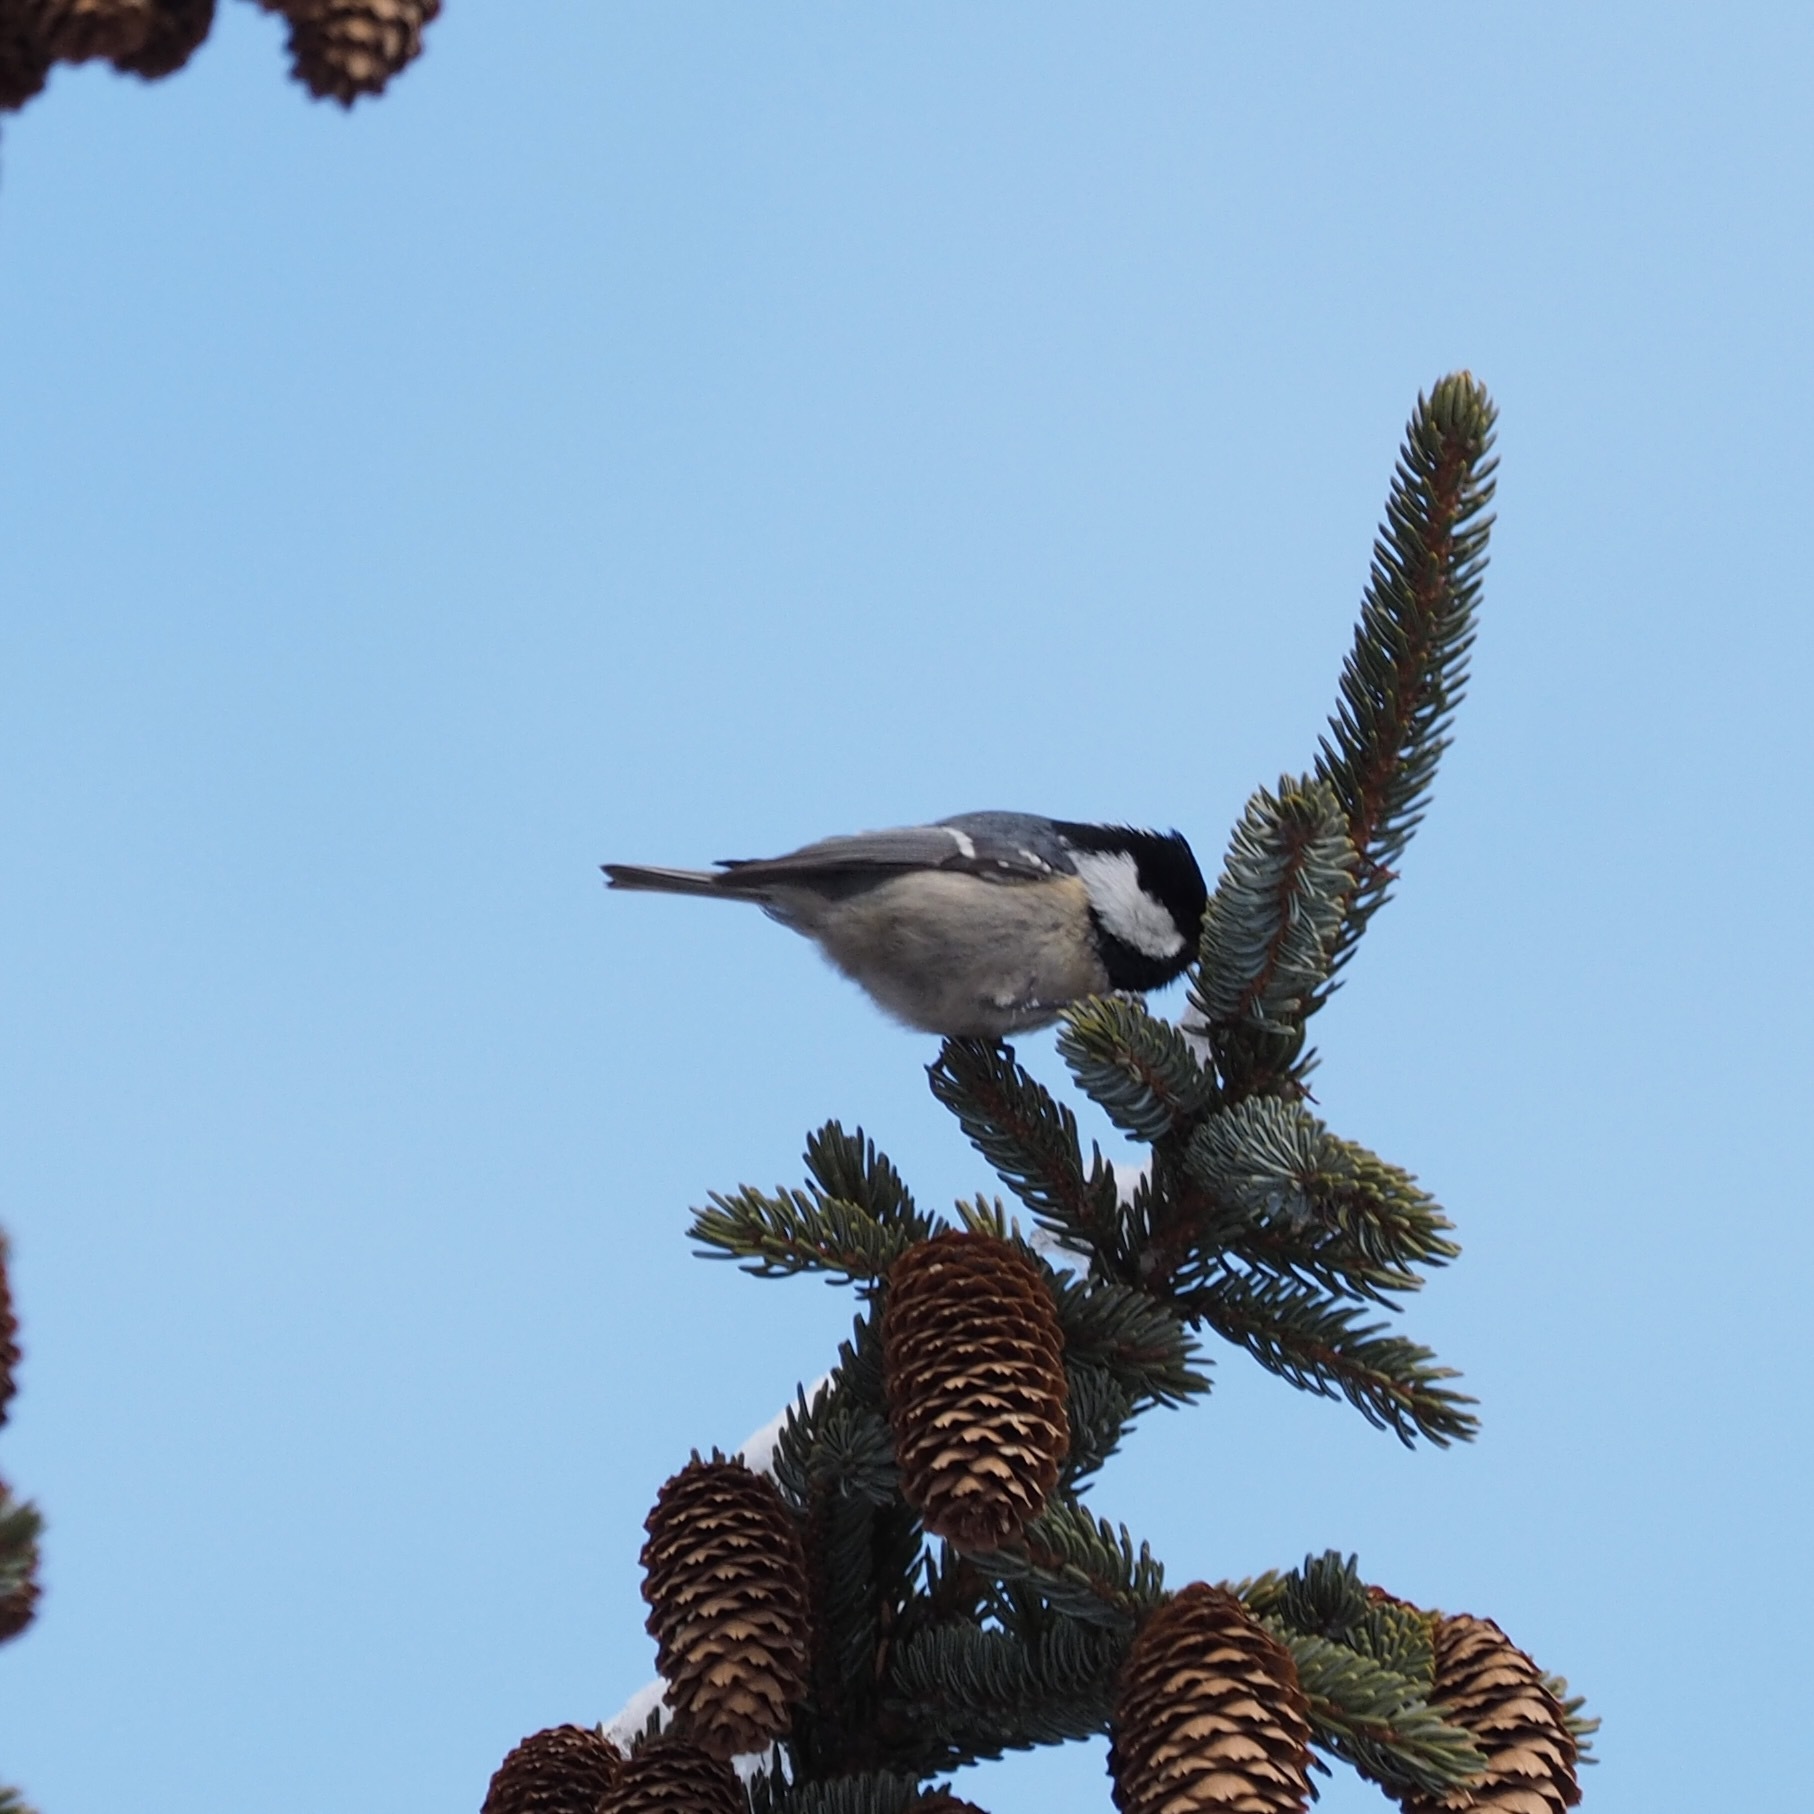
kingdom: Animalia
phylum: Chordata
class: Aves
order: Passeriformes
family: Paridae
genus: Periparus
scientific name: Periparus ater
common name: Coal tit
